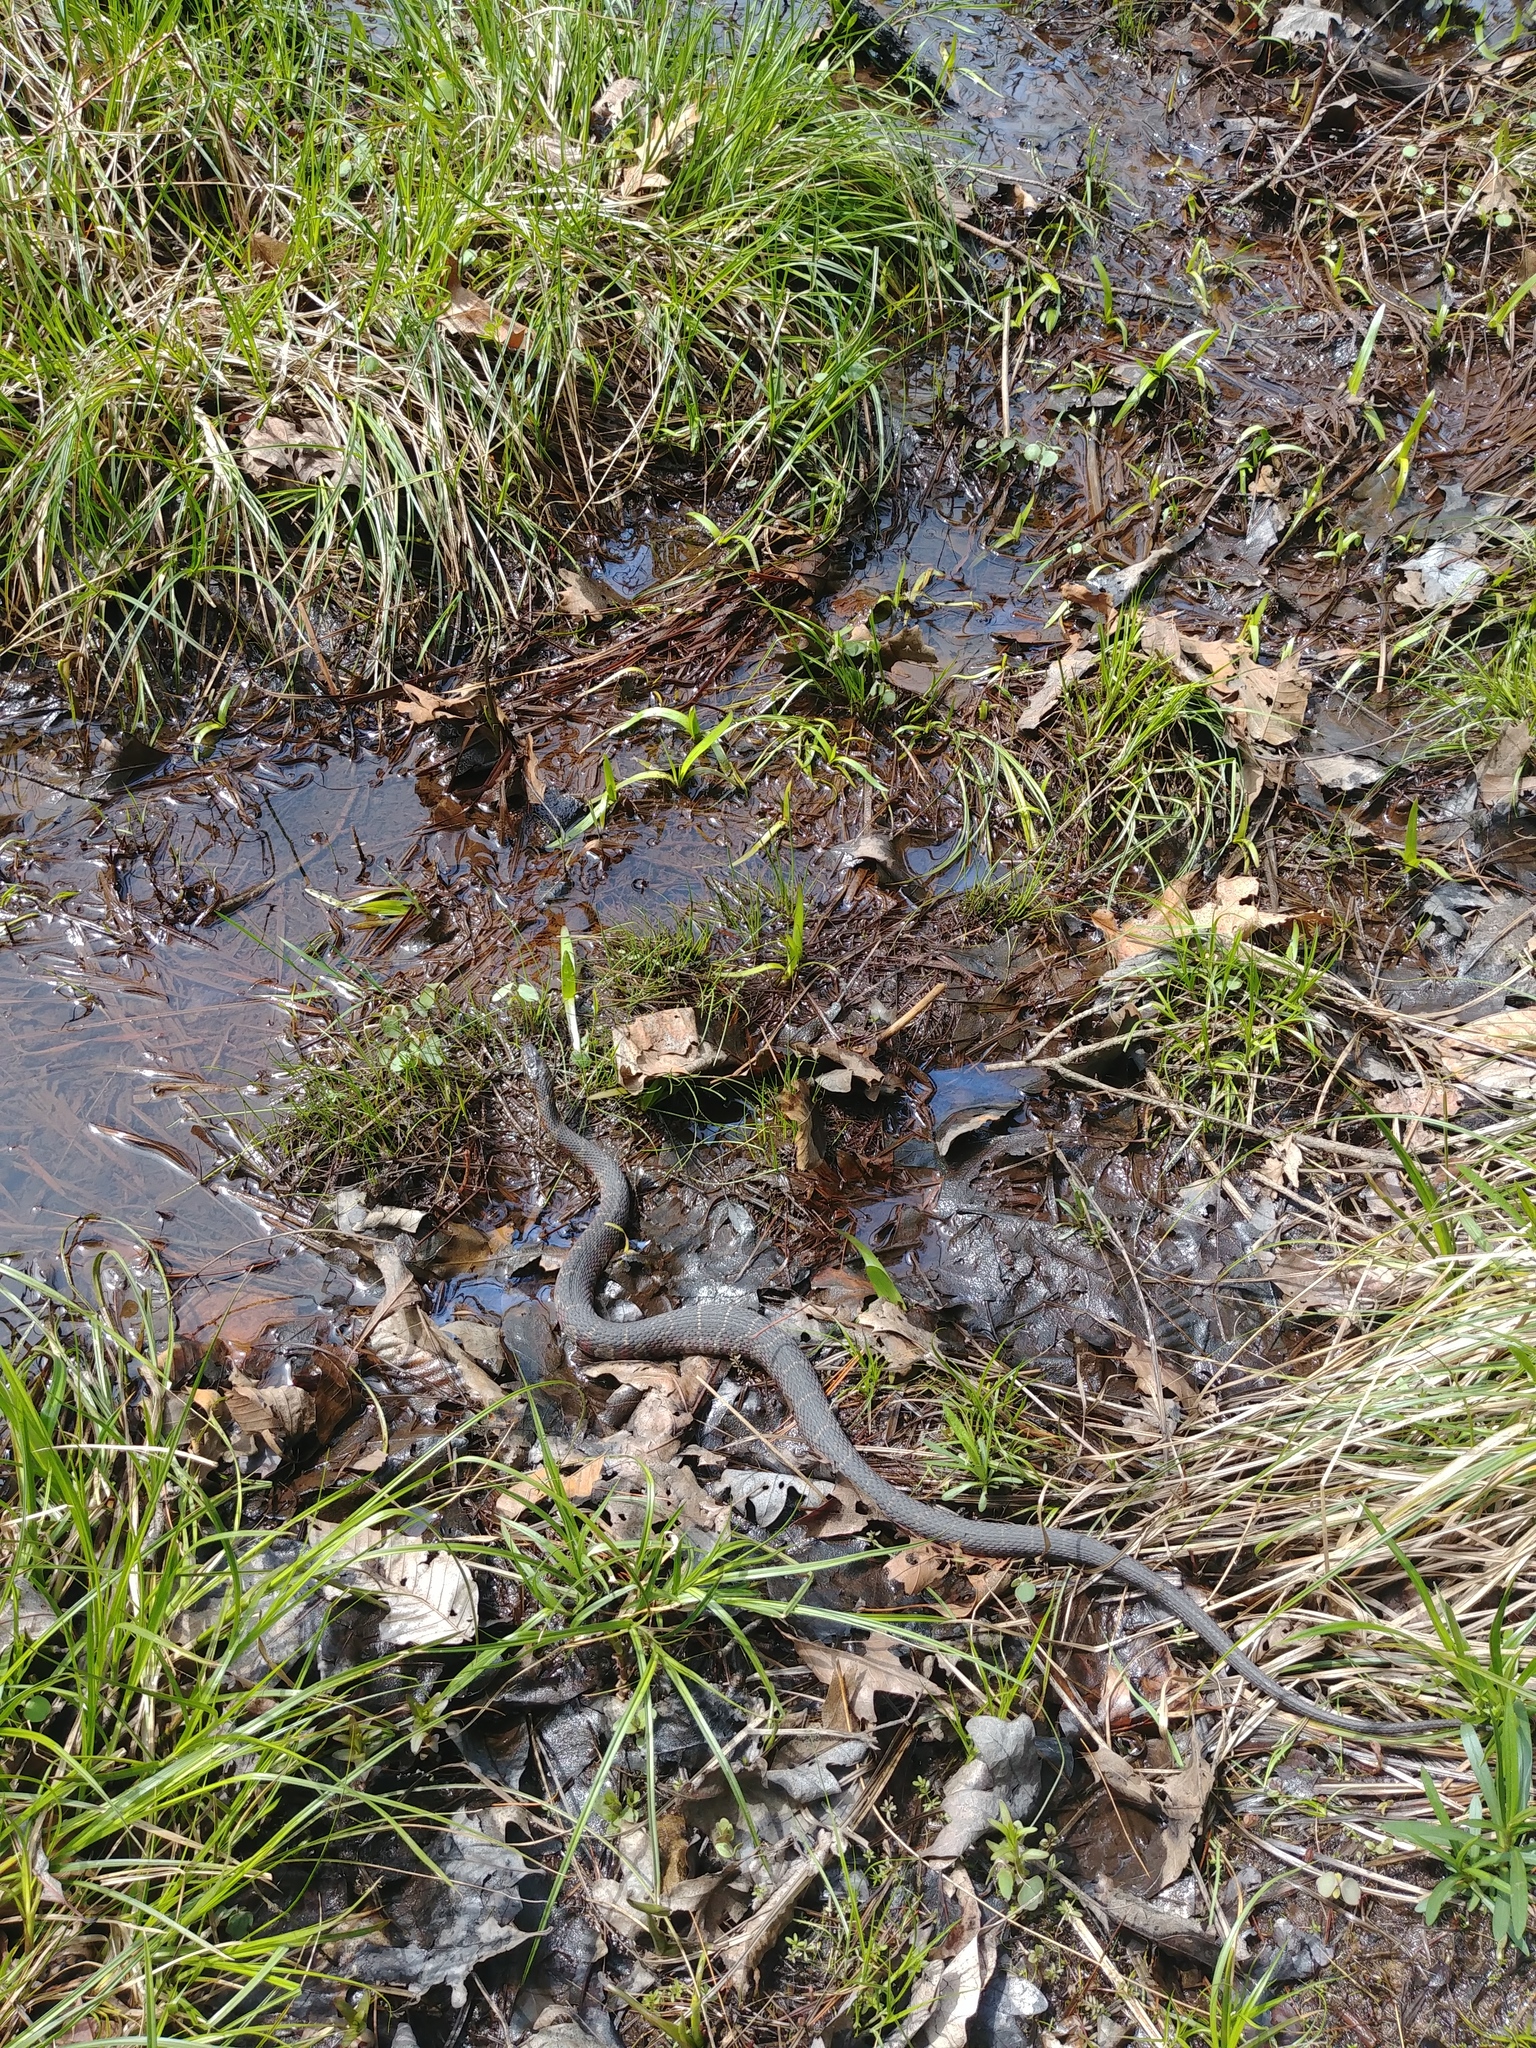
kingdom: Animalia
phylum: Chordata
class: Squamata
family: Colubridae
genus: Nerodia
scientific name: Nerodia sipedon
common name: Northern water snake
